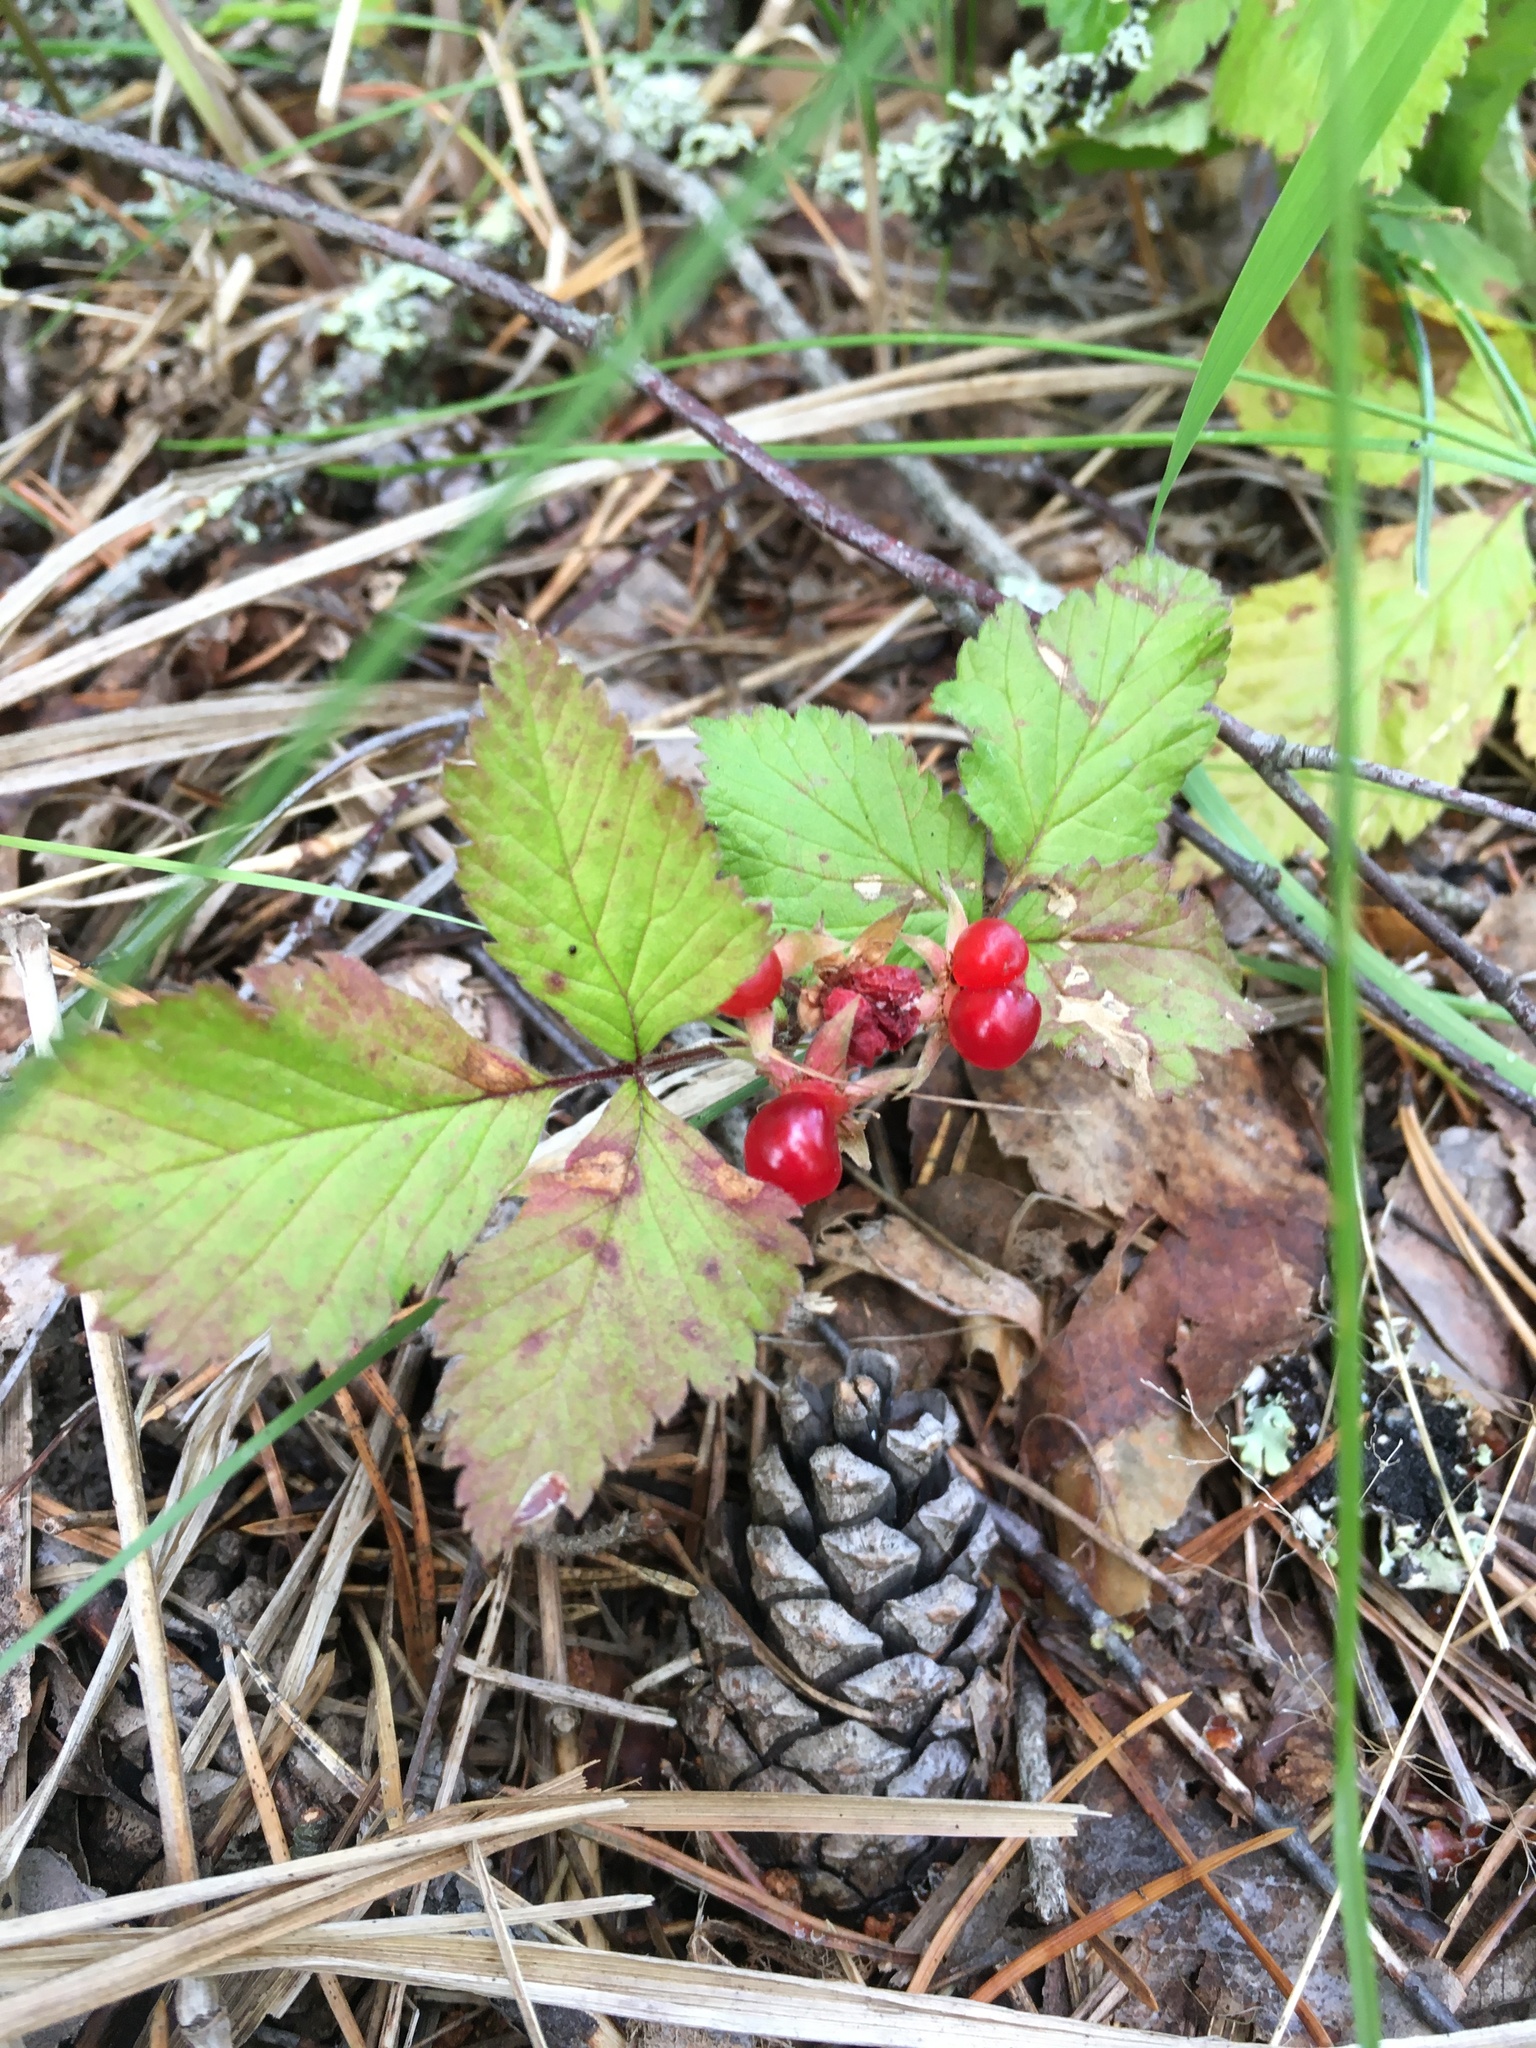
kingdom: Plantae
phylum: Tracheophyta
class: Magnoliopsida
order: Rosales
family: Rosaceae
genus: Rubus
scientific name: Rubus saxatilis
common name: Stone bramble
